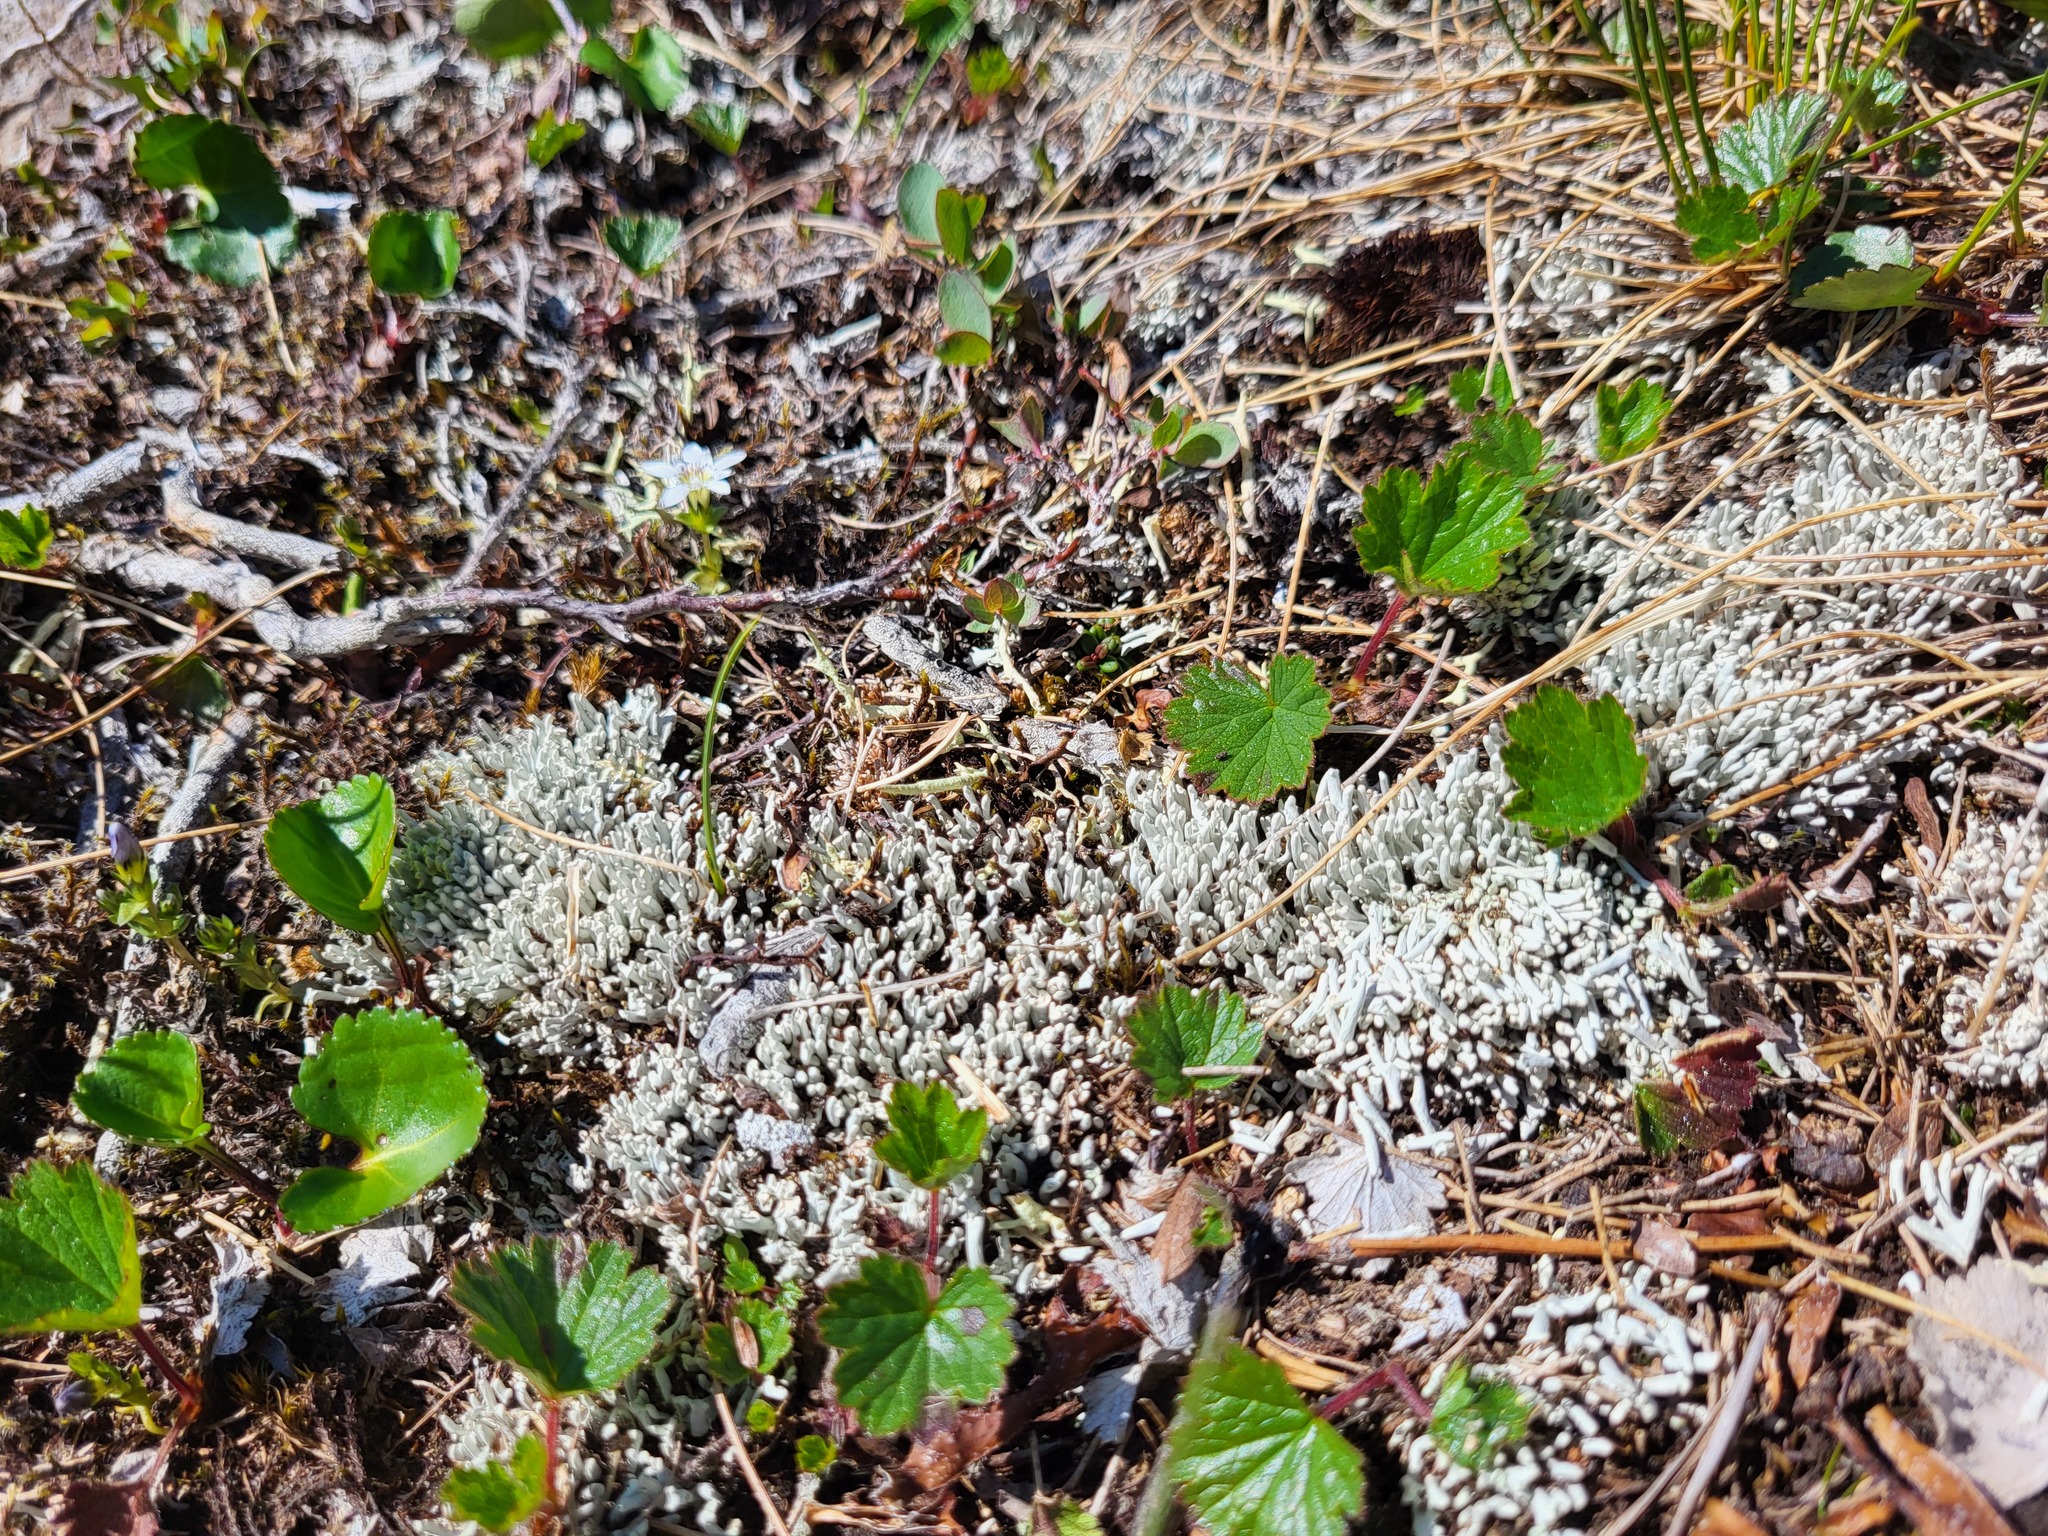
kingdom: Fungi
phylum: Ascomycota
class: Lecanoromycetes
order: Pertusariales
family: Icmadophilaceae
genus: Siphula
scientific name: Siphula ceratites
